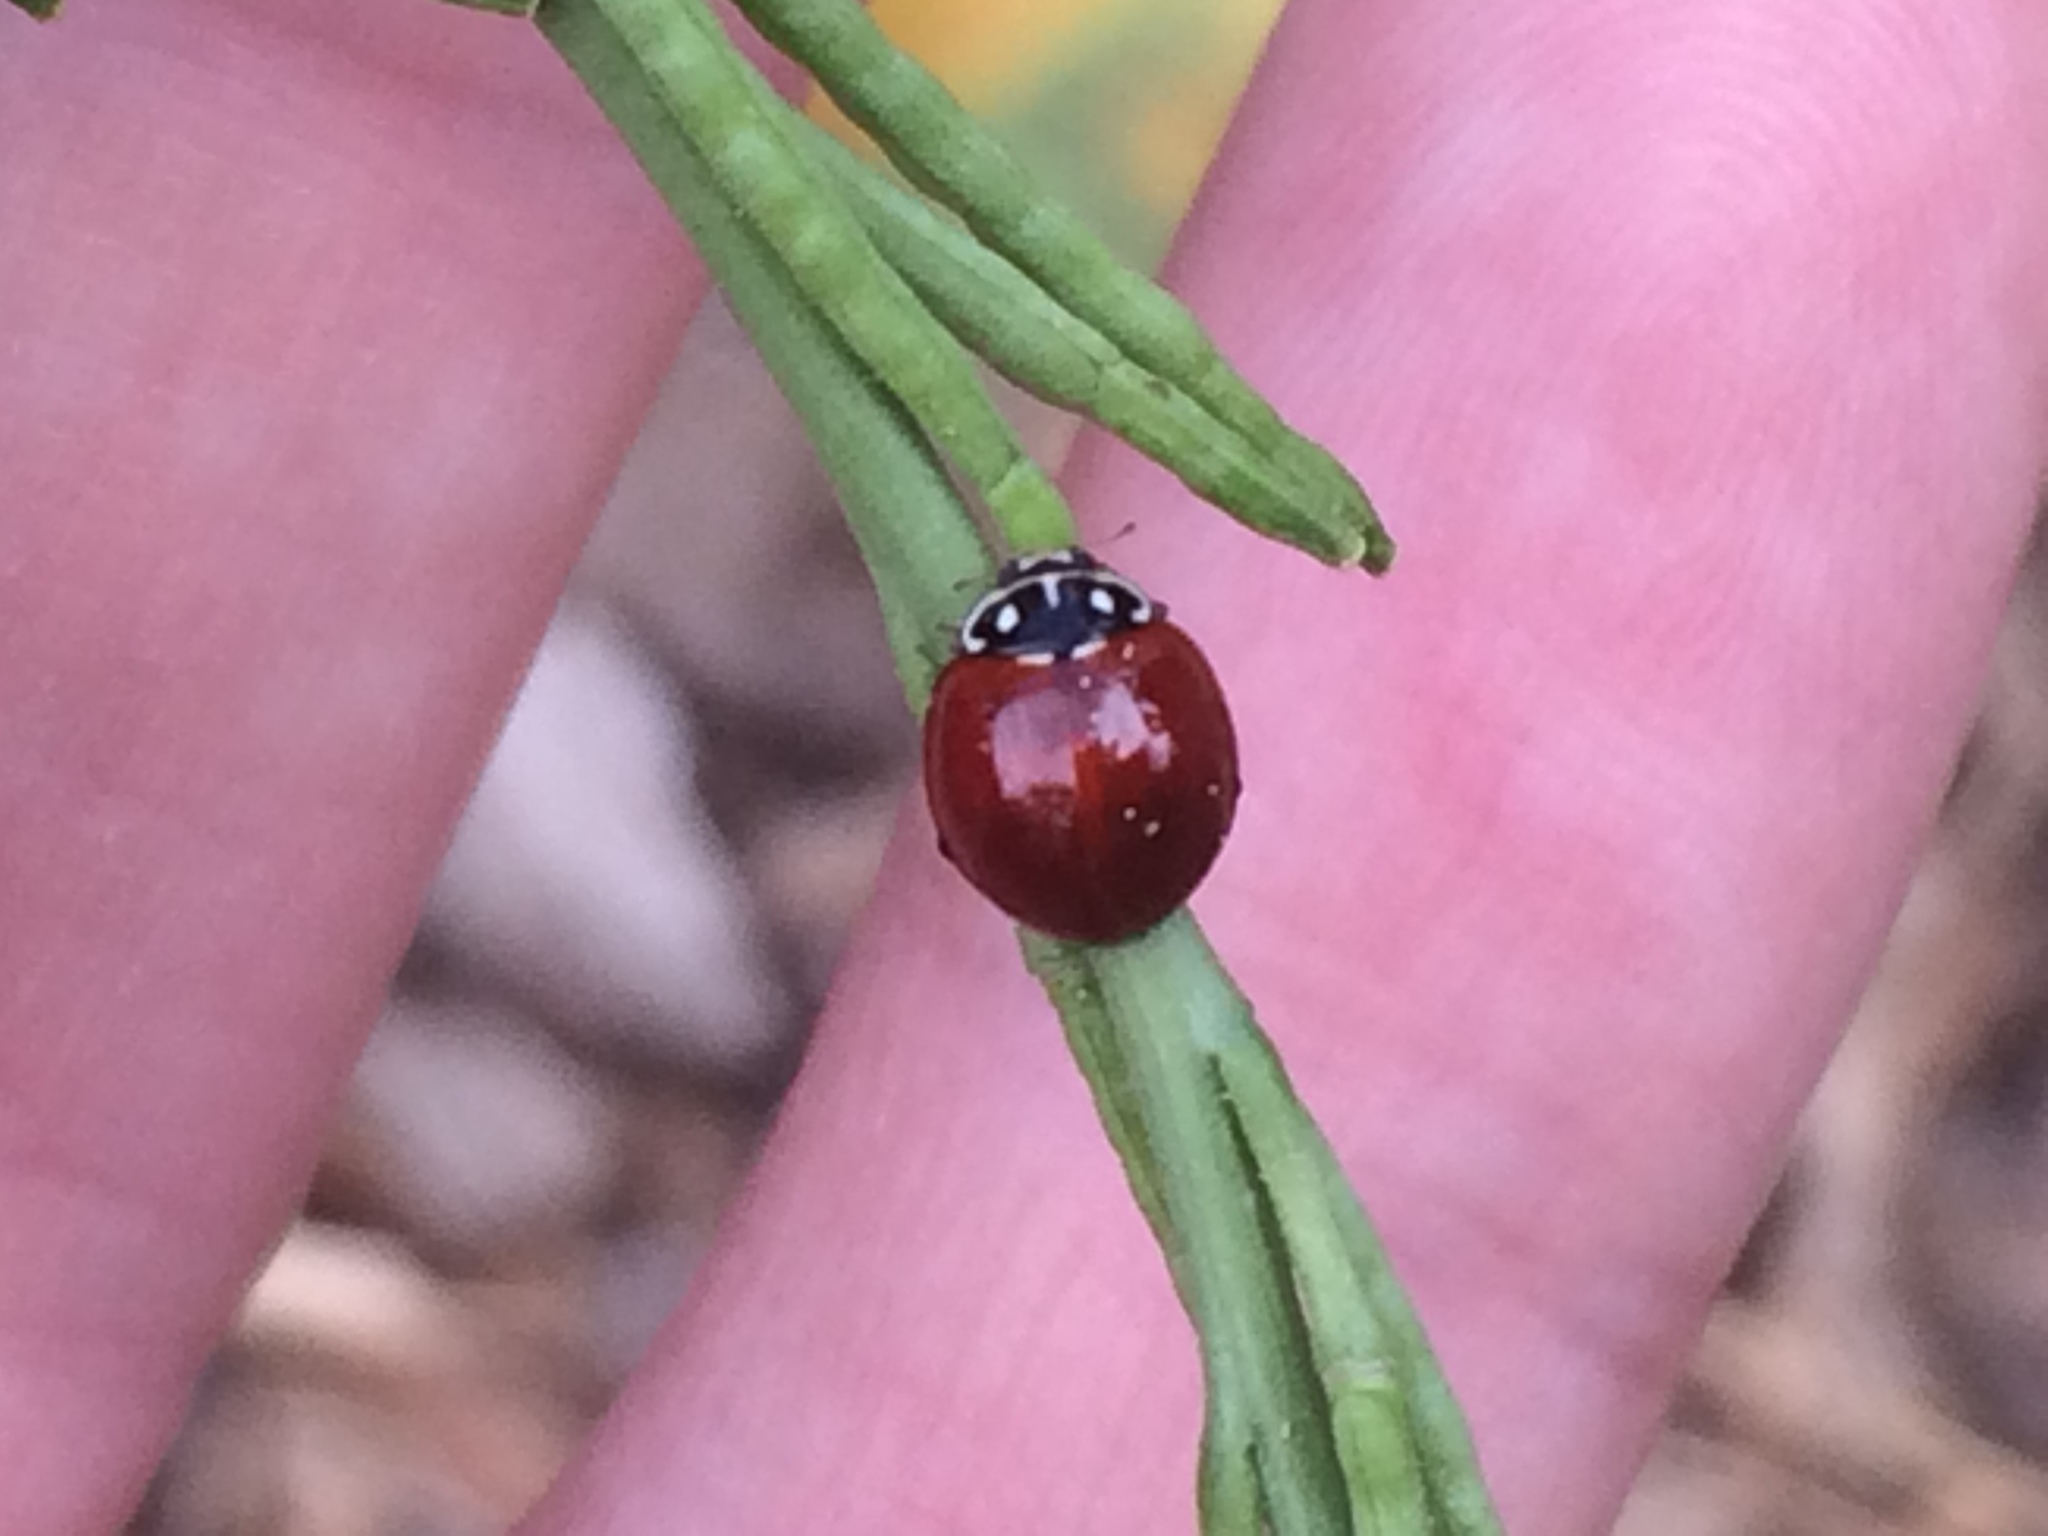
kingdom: Animalia
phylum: Arthropoda
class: Insecta
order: Coleoptera
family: Coccinellidae
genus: Cycloneda
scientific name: Cycloneda sanguinea
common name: Ladybird beetle
